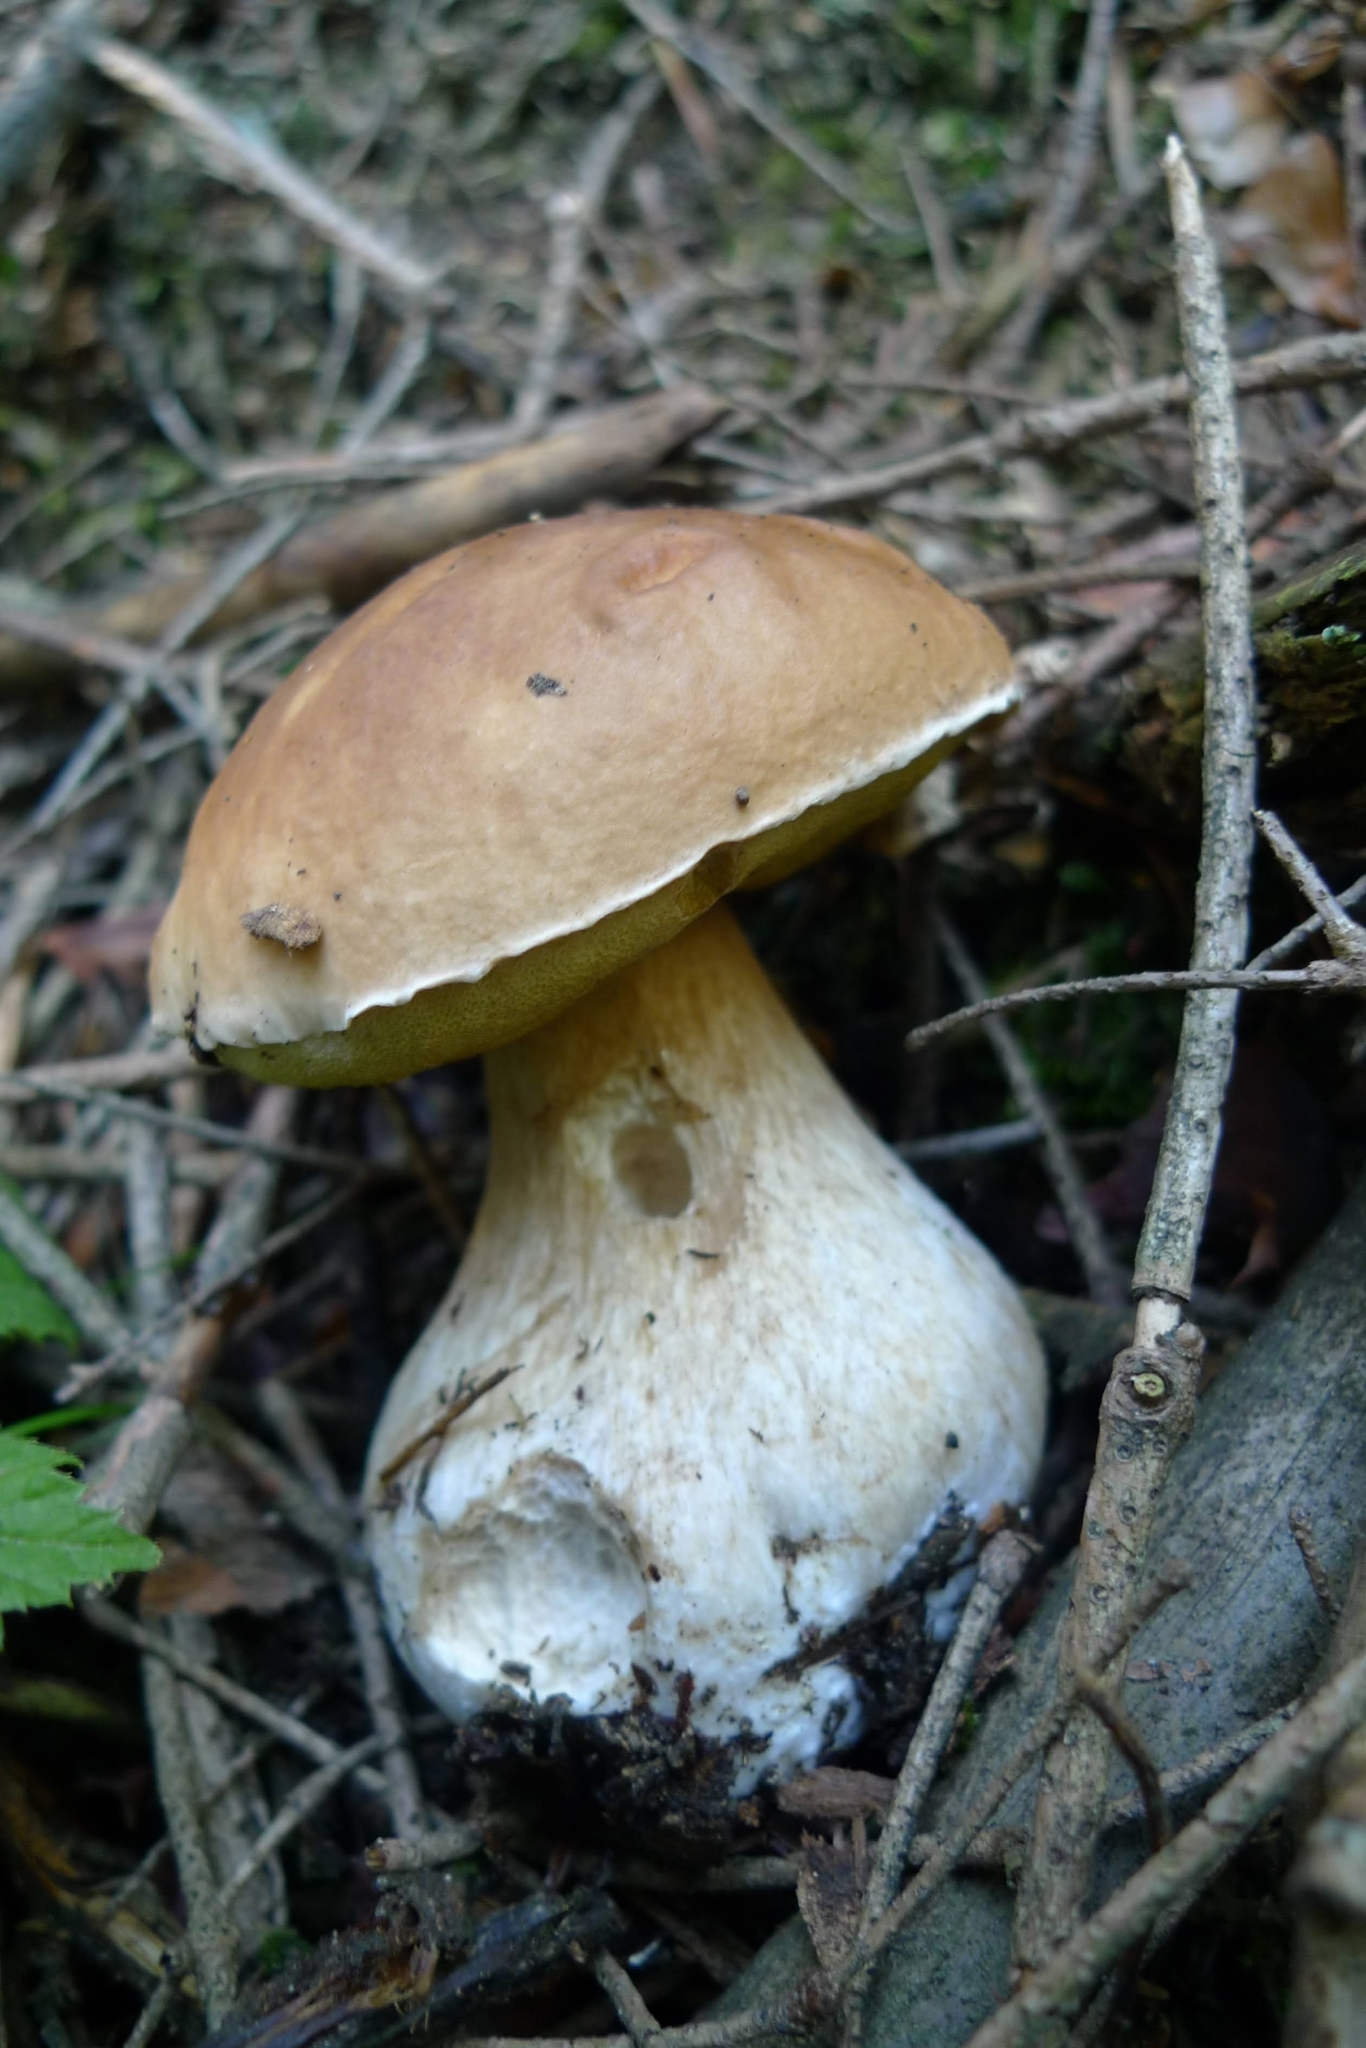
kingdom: Fungi
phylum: Basidiomycota
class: Agaricomycetes
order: Boletales
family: Boletaceae
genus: Boletus
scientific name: Boletus edulis
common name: Cep
